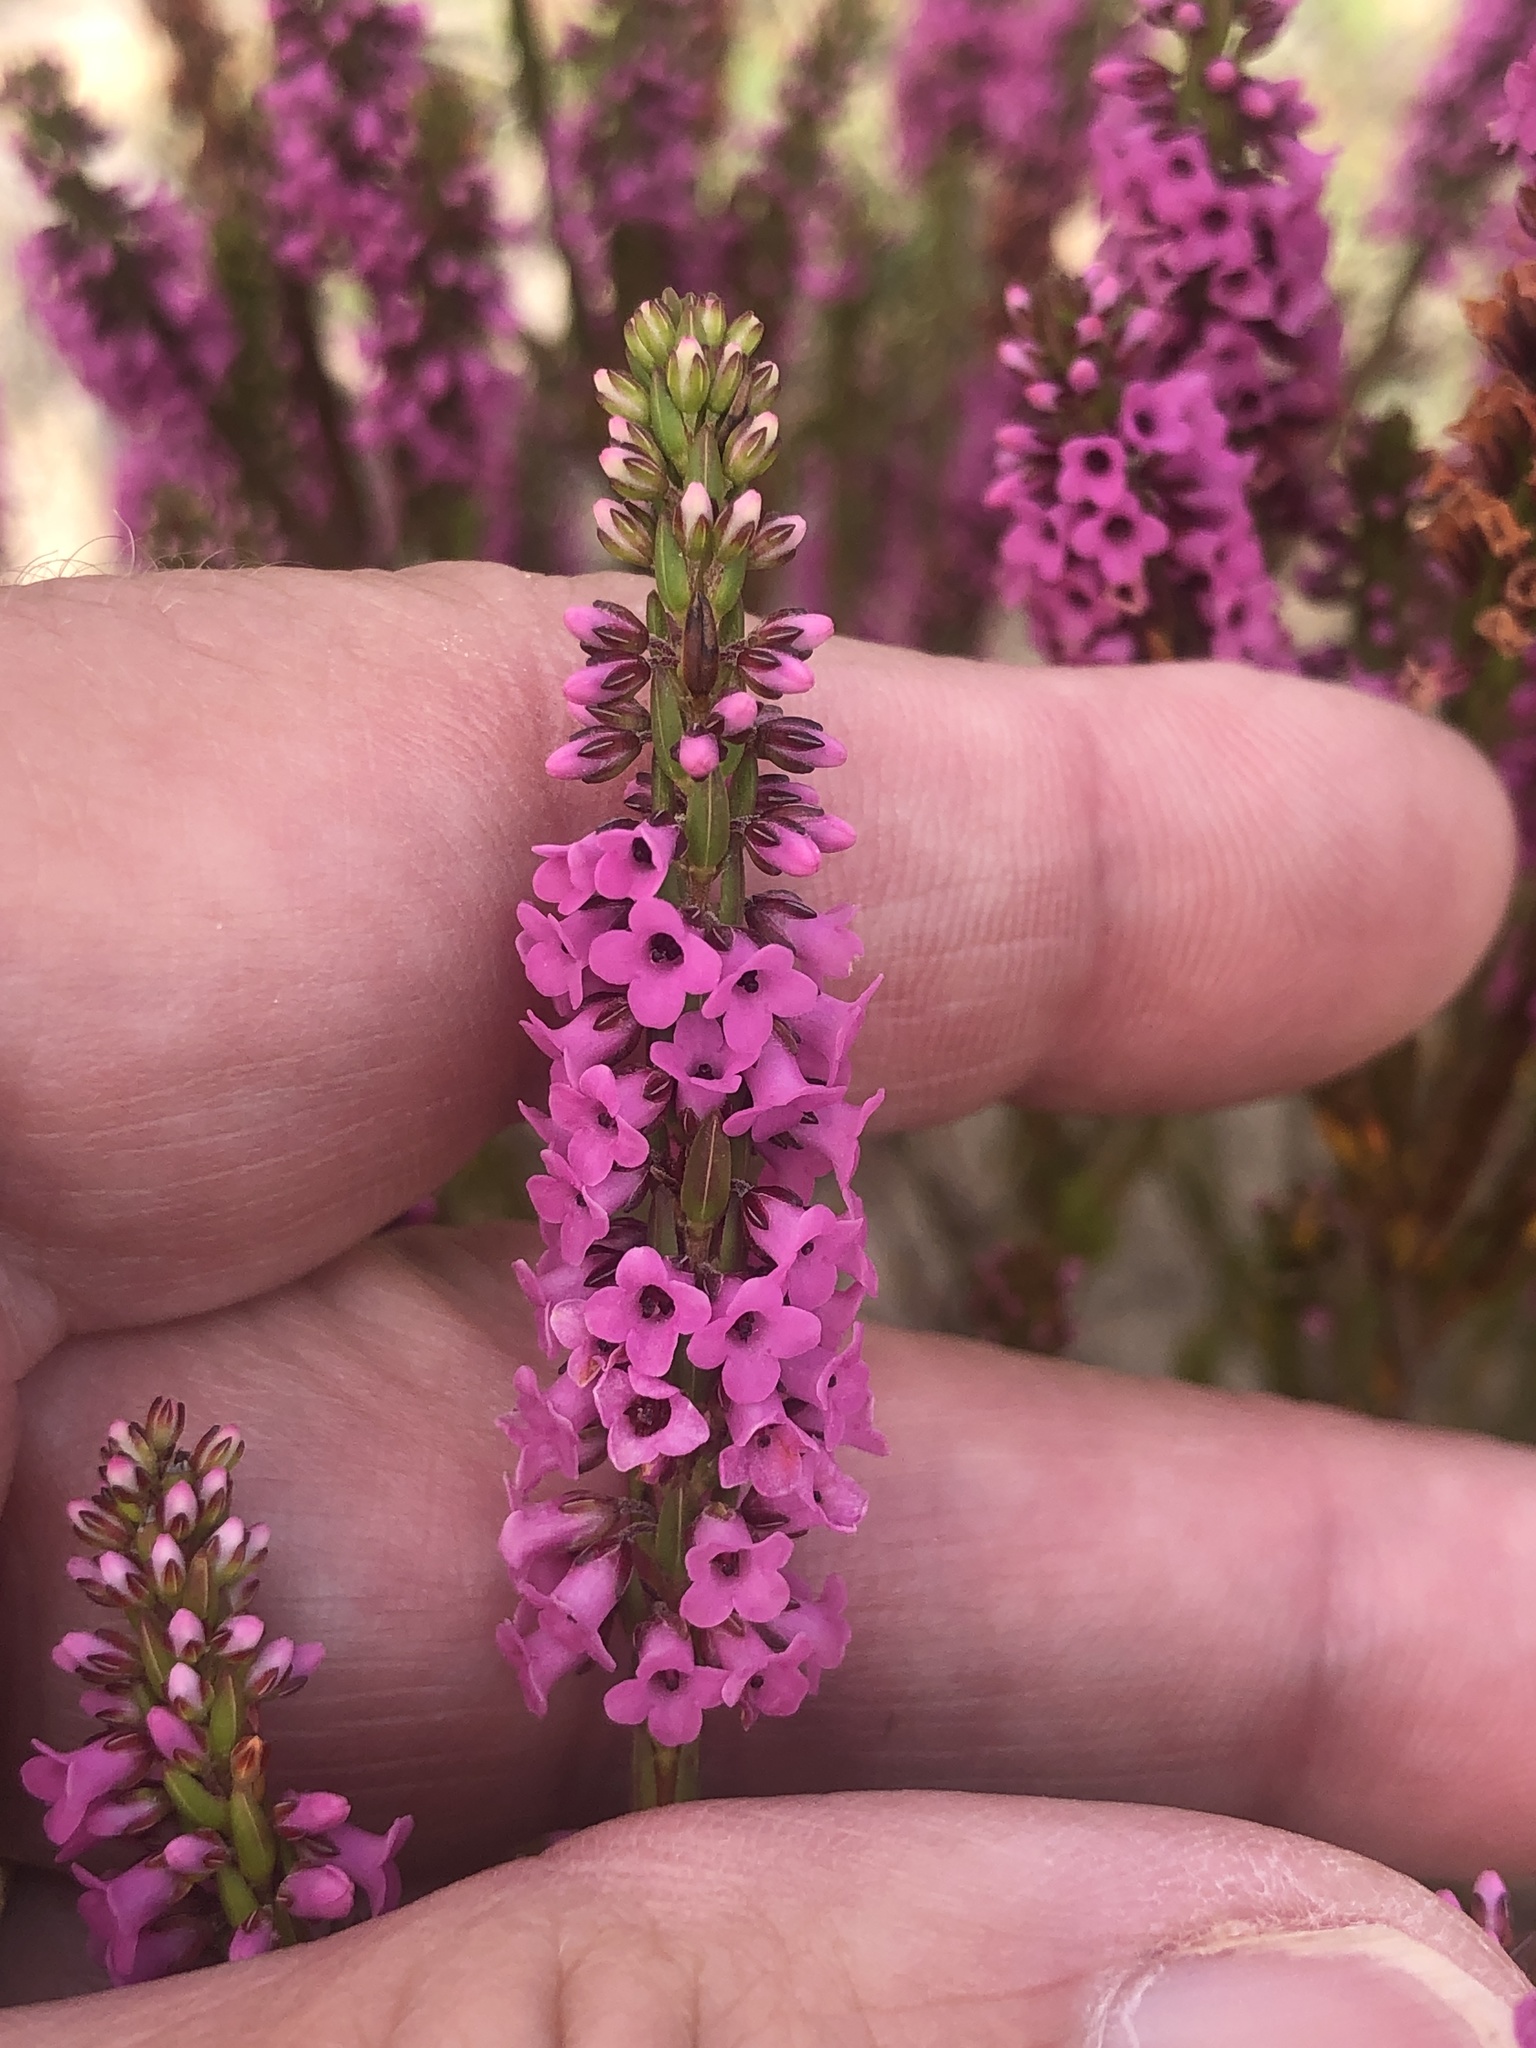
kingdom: Plantae
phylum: Tracheophyta
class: Magnoliopsida
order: Ericales
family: Ericaceae
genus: Erica
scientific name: Erica pulchella
